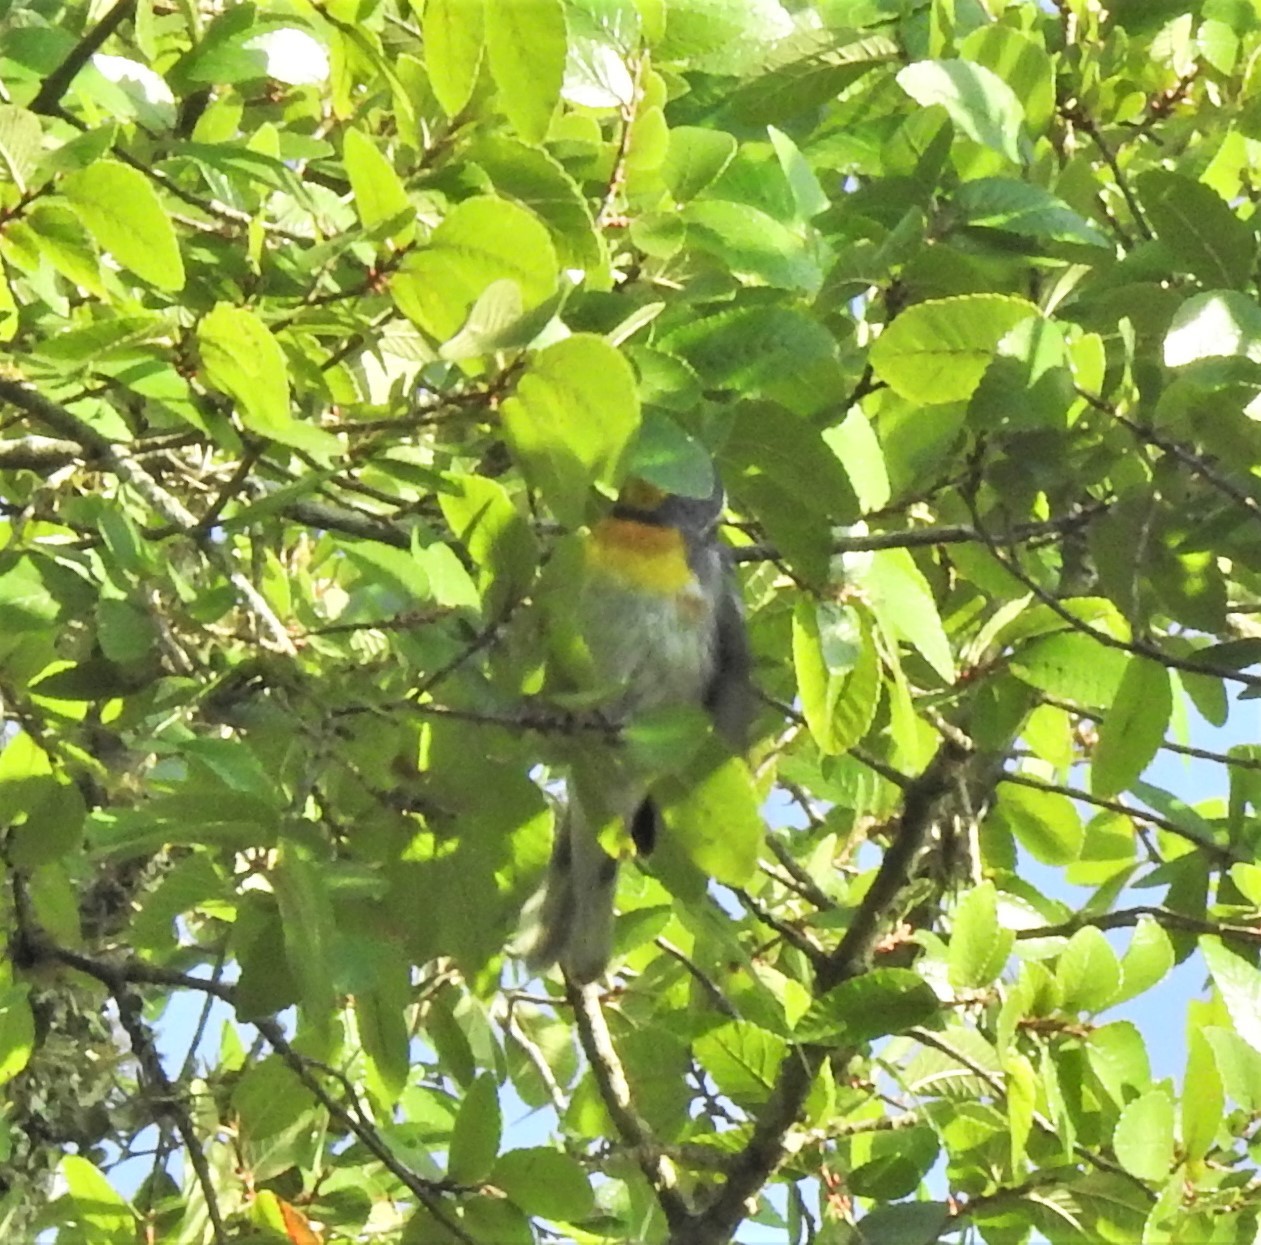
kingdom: Animalia
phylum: Chordata
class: Aves
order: Passeriformes
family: Parulidae
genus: Setophaga
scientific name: Setophaga americana
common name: Northern parula
